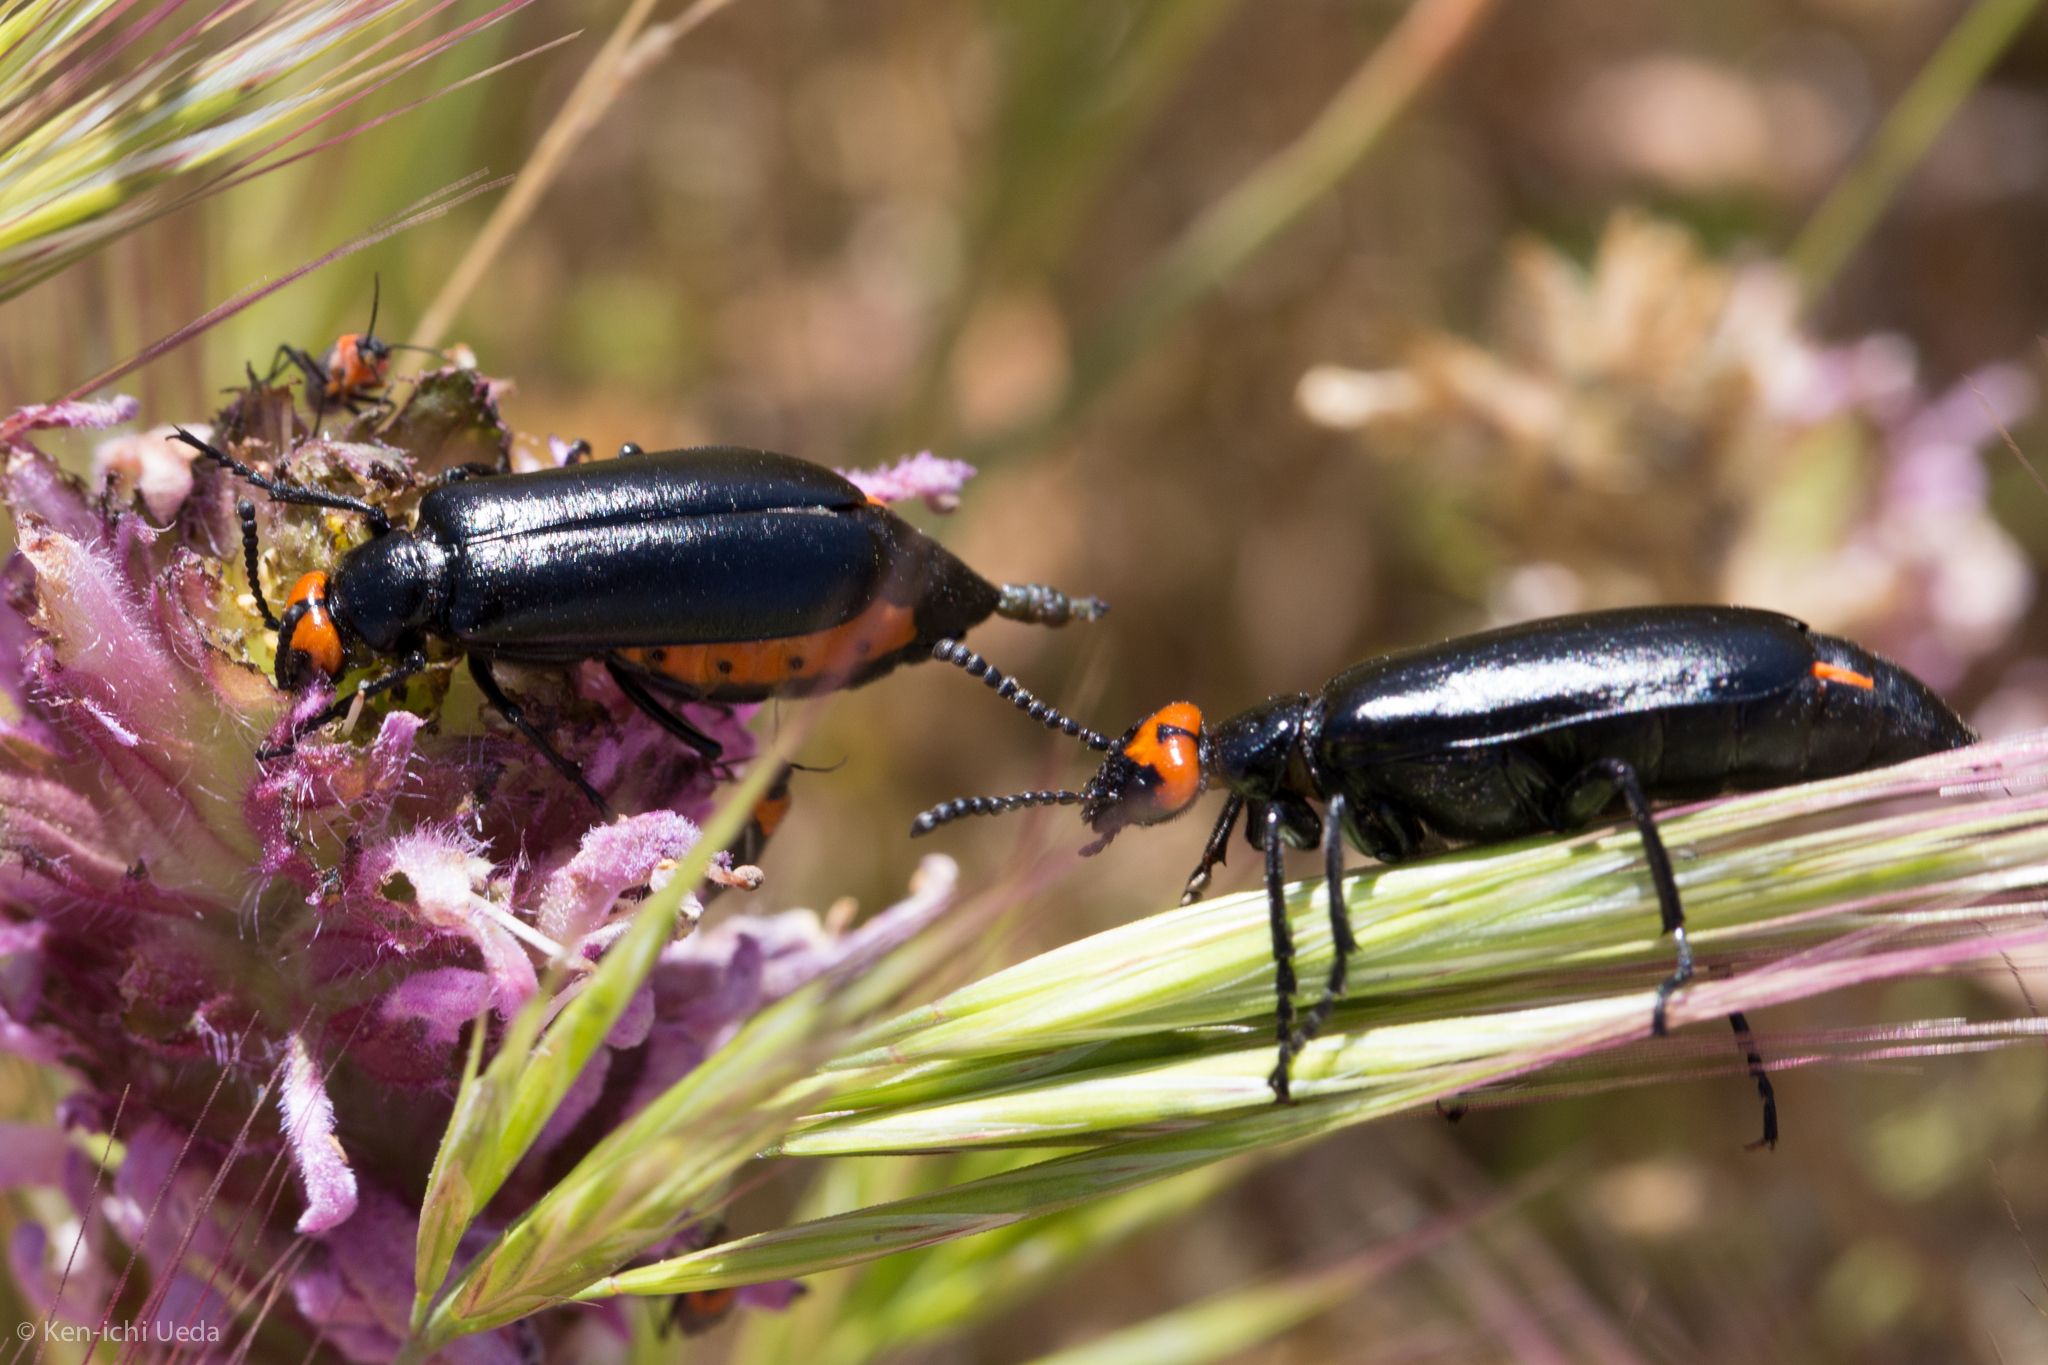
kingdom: Animalia
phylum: Arthropoda
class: Insecta
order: Coleoptera
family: Meloidae
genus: Lytta
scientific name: Lytta tenebrosa
